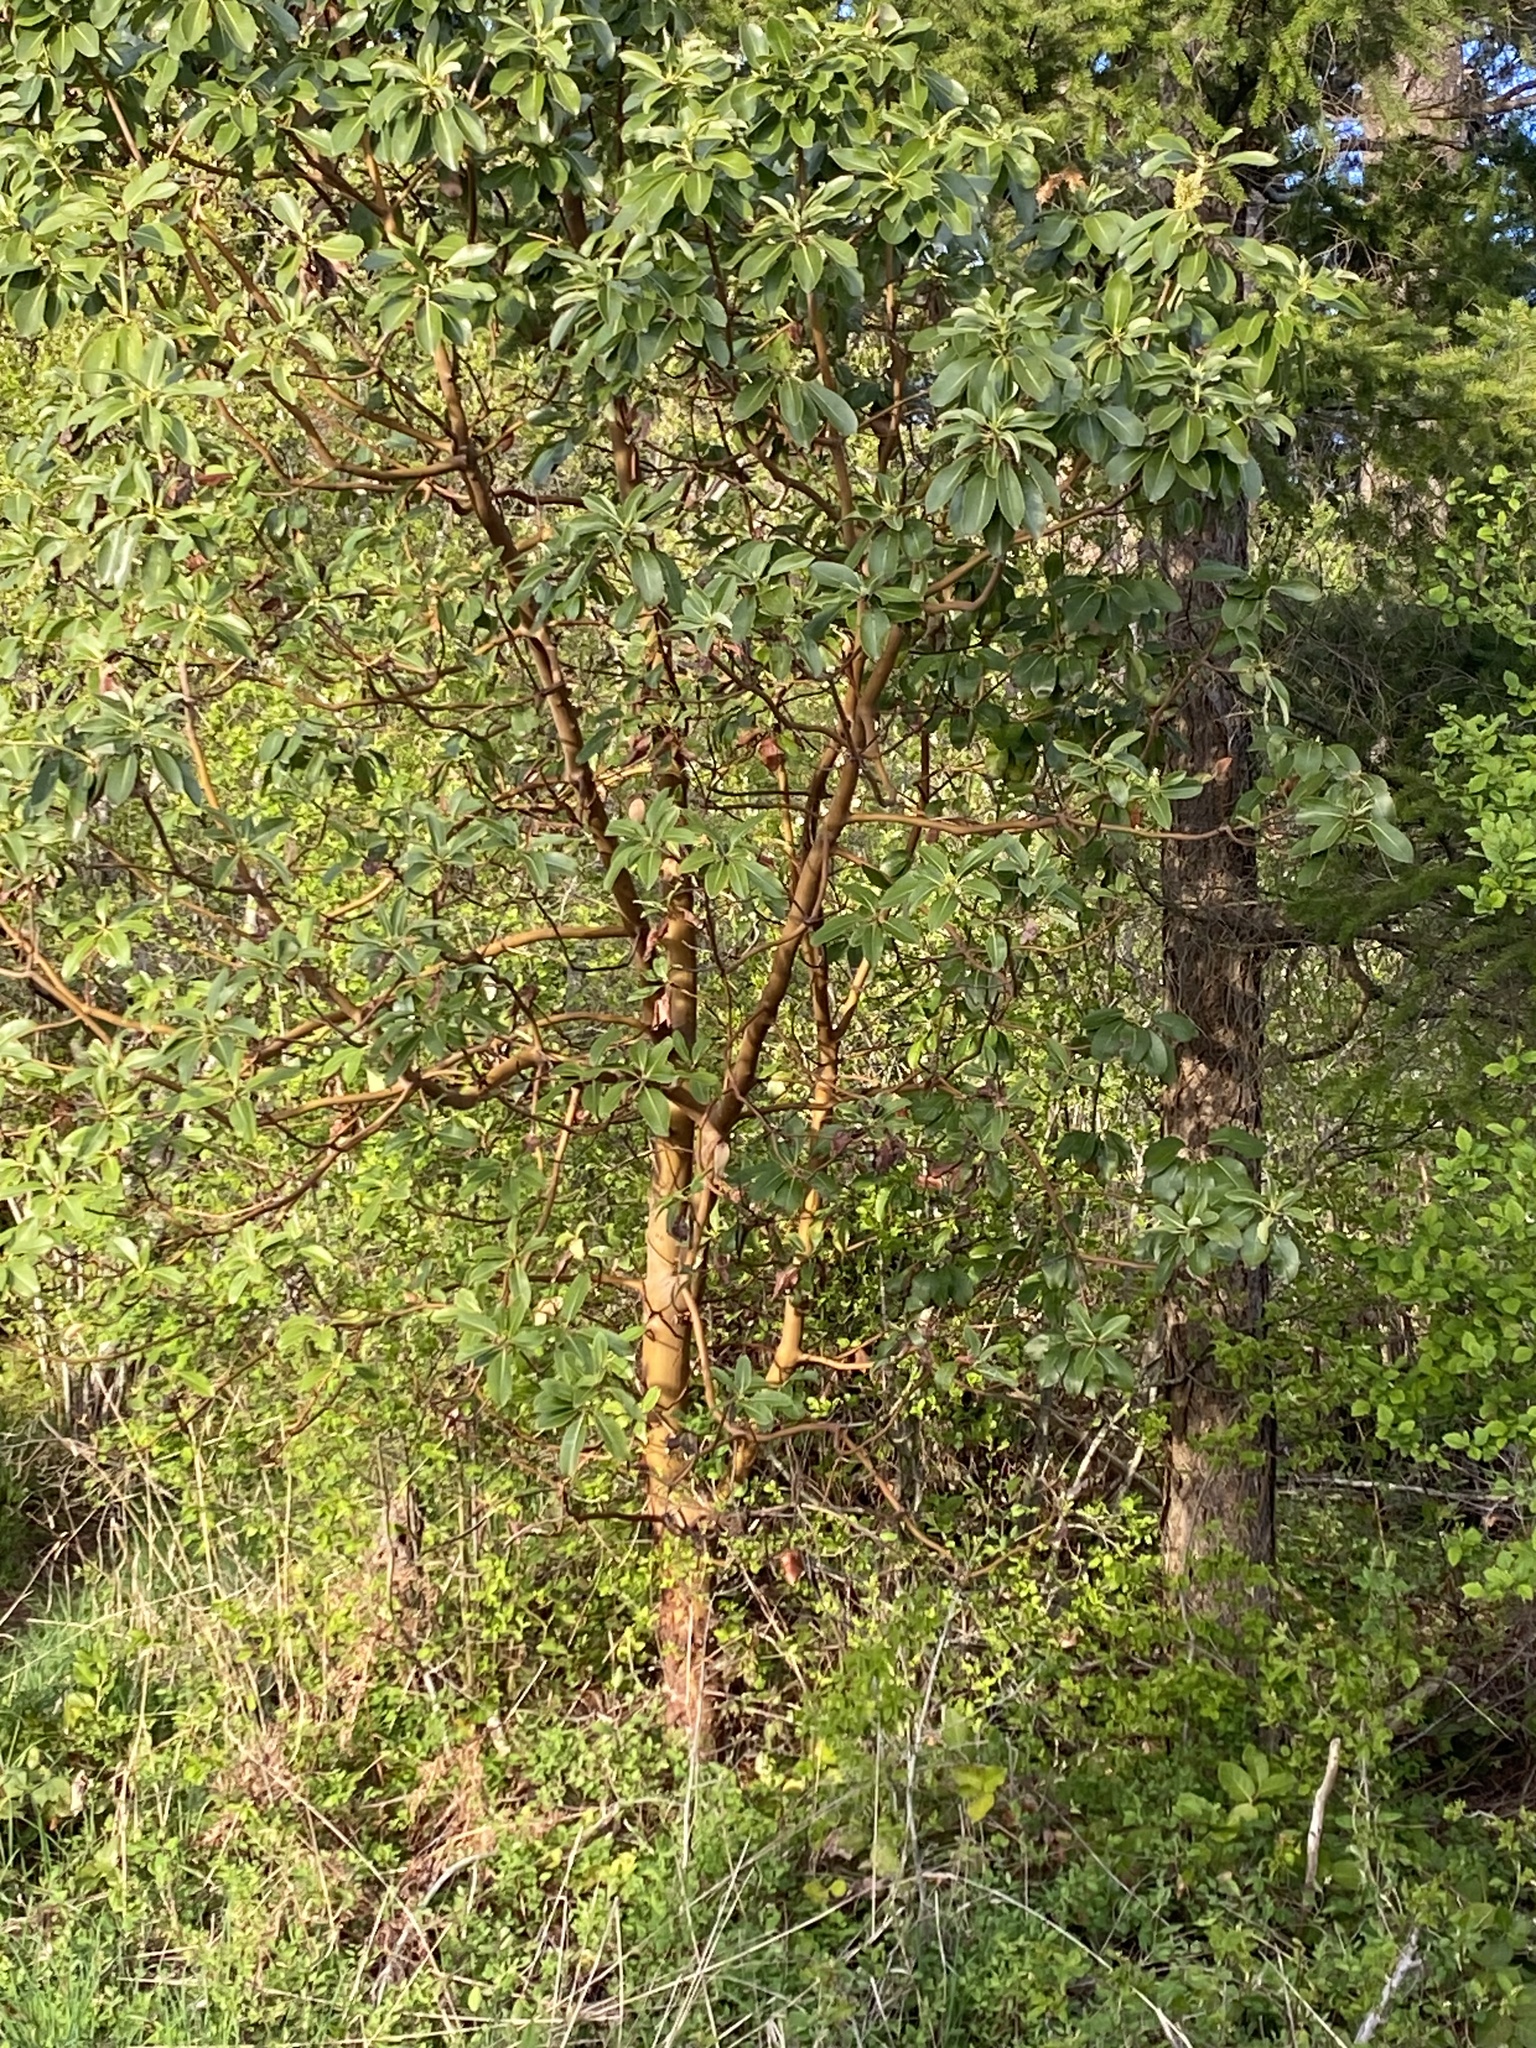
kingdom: Plantae
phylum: Tracheophyta
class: Magnoliopsida
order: Ericales
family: Ericaceae
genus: Arbutus
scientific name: Arbutus menziesii
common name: Pacific madrone
